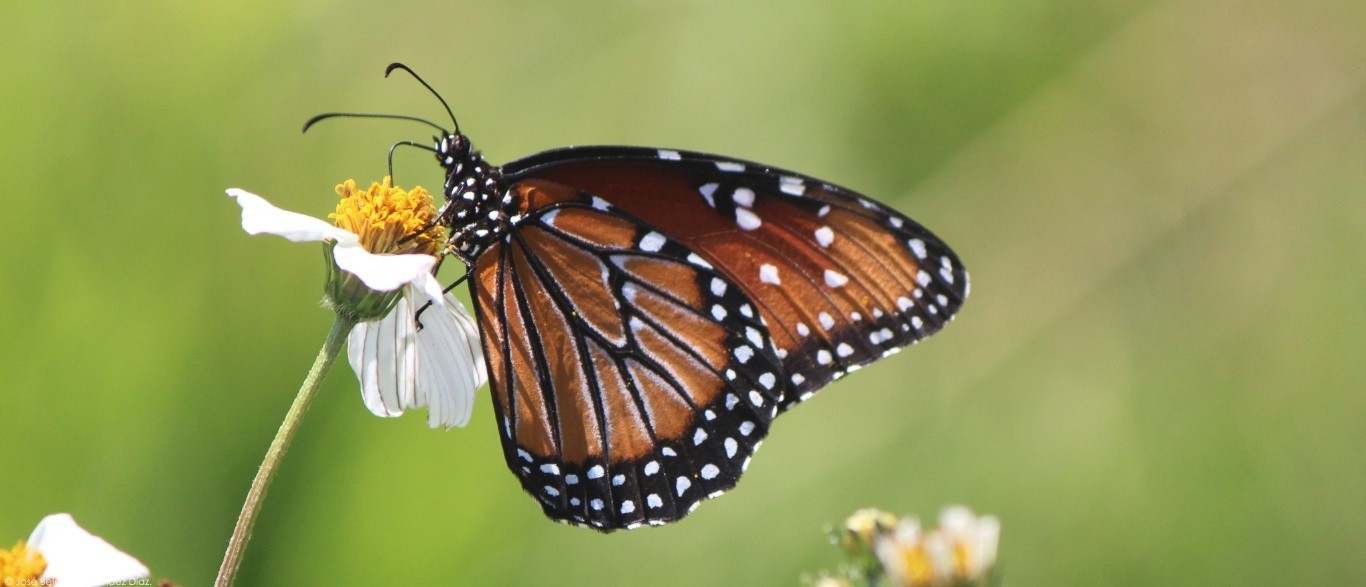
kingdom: Animalia
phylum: Arthropoda
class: Insecta
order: Lepidoptera
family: Nymphalidae
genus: Danaus
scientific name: Danaus gilippus
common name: Queen
